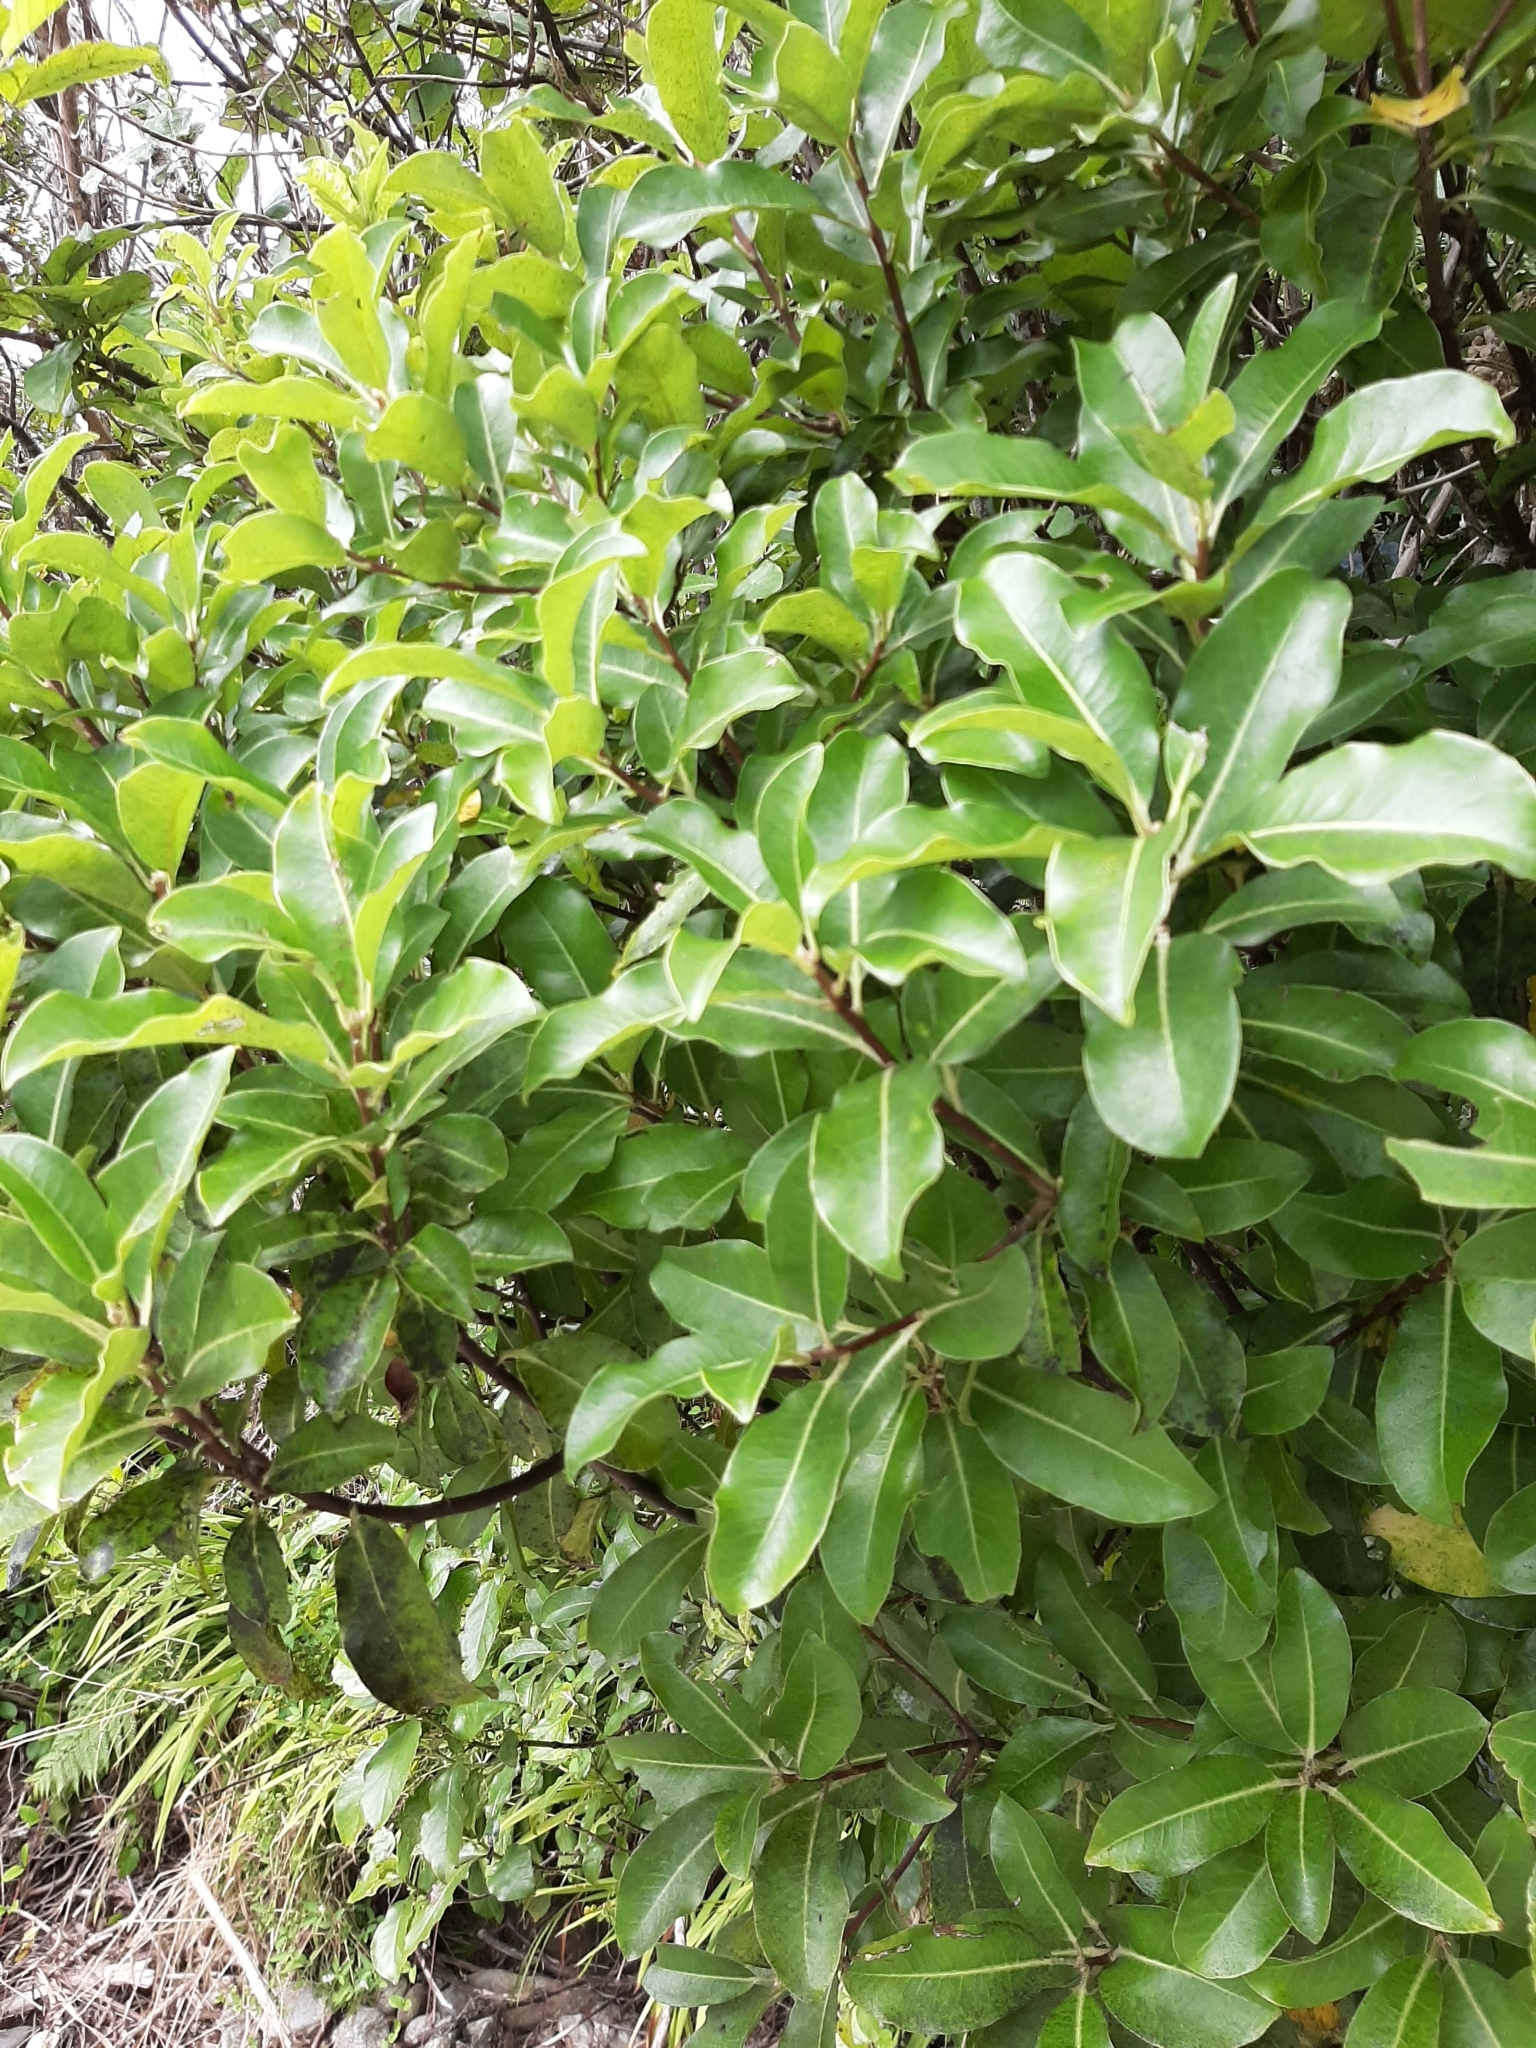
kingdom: Plantae
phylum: Tracheophyta
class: Magnoliopsida
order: Apiales
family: Pittosporaceae
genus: Pittosporum
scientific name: Pittosporum colensoi
